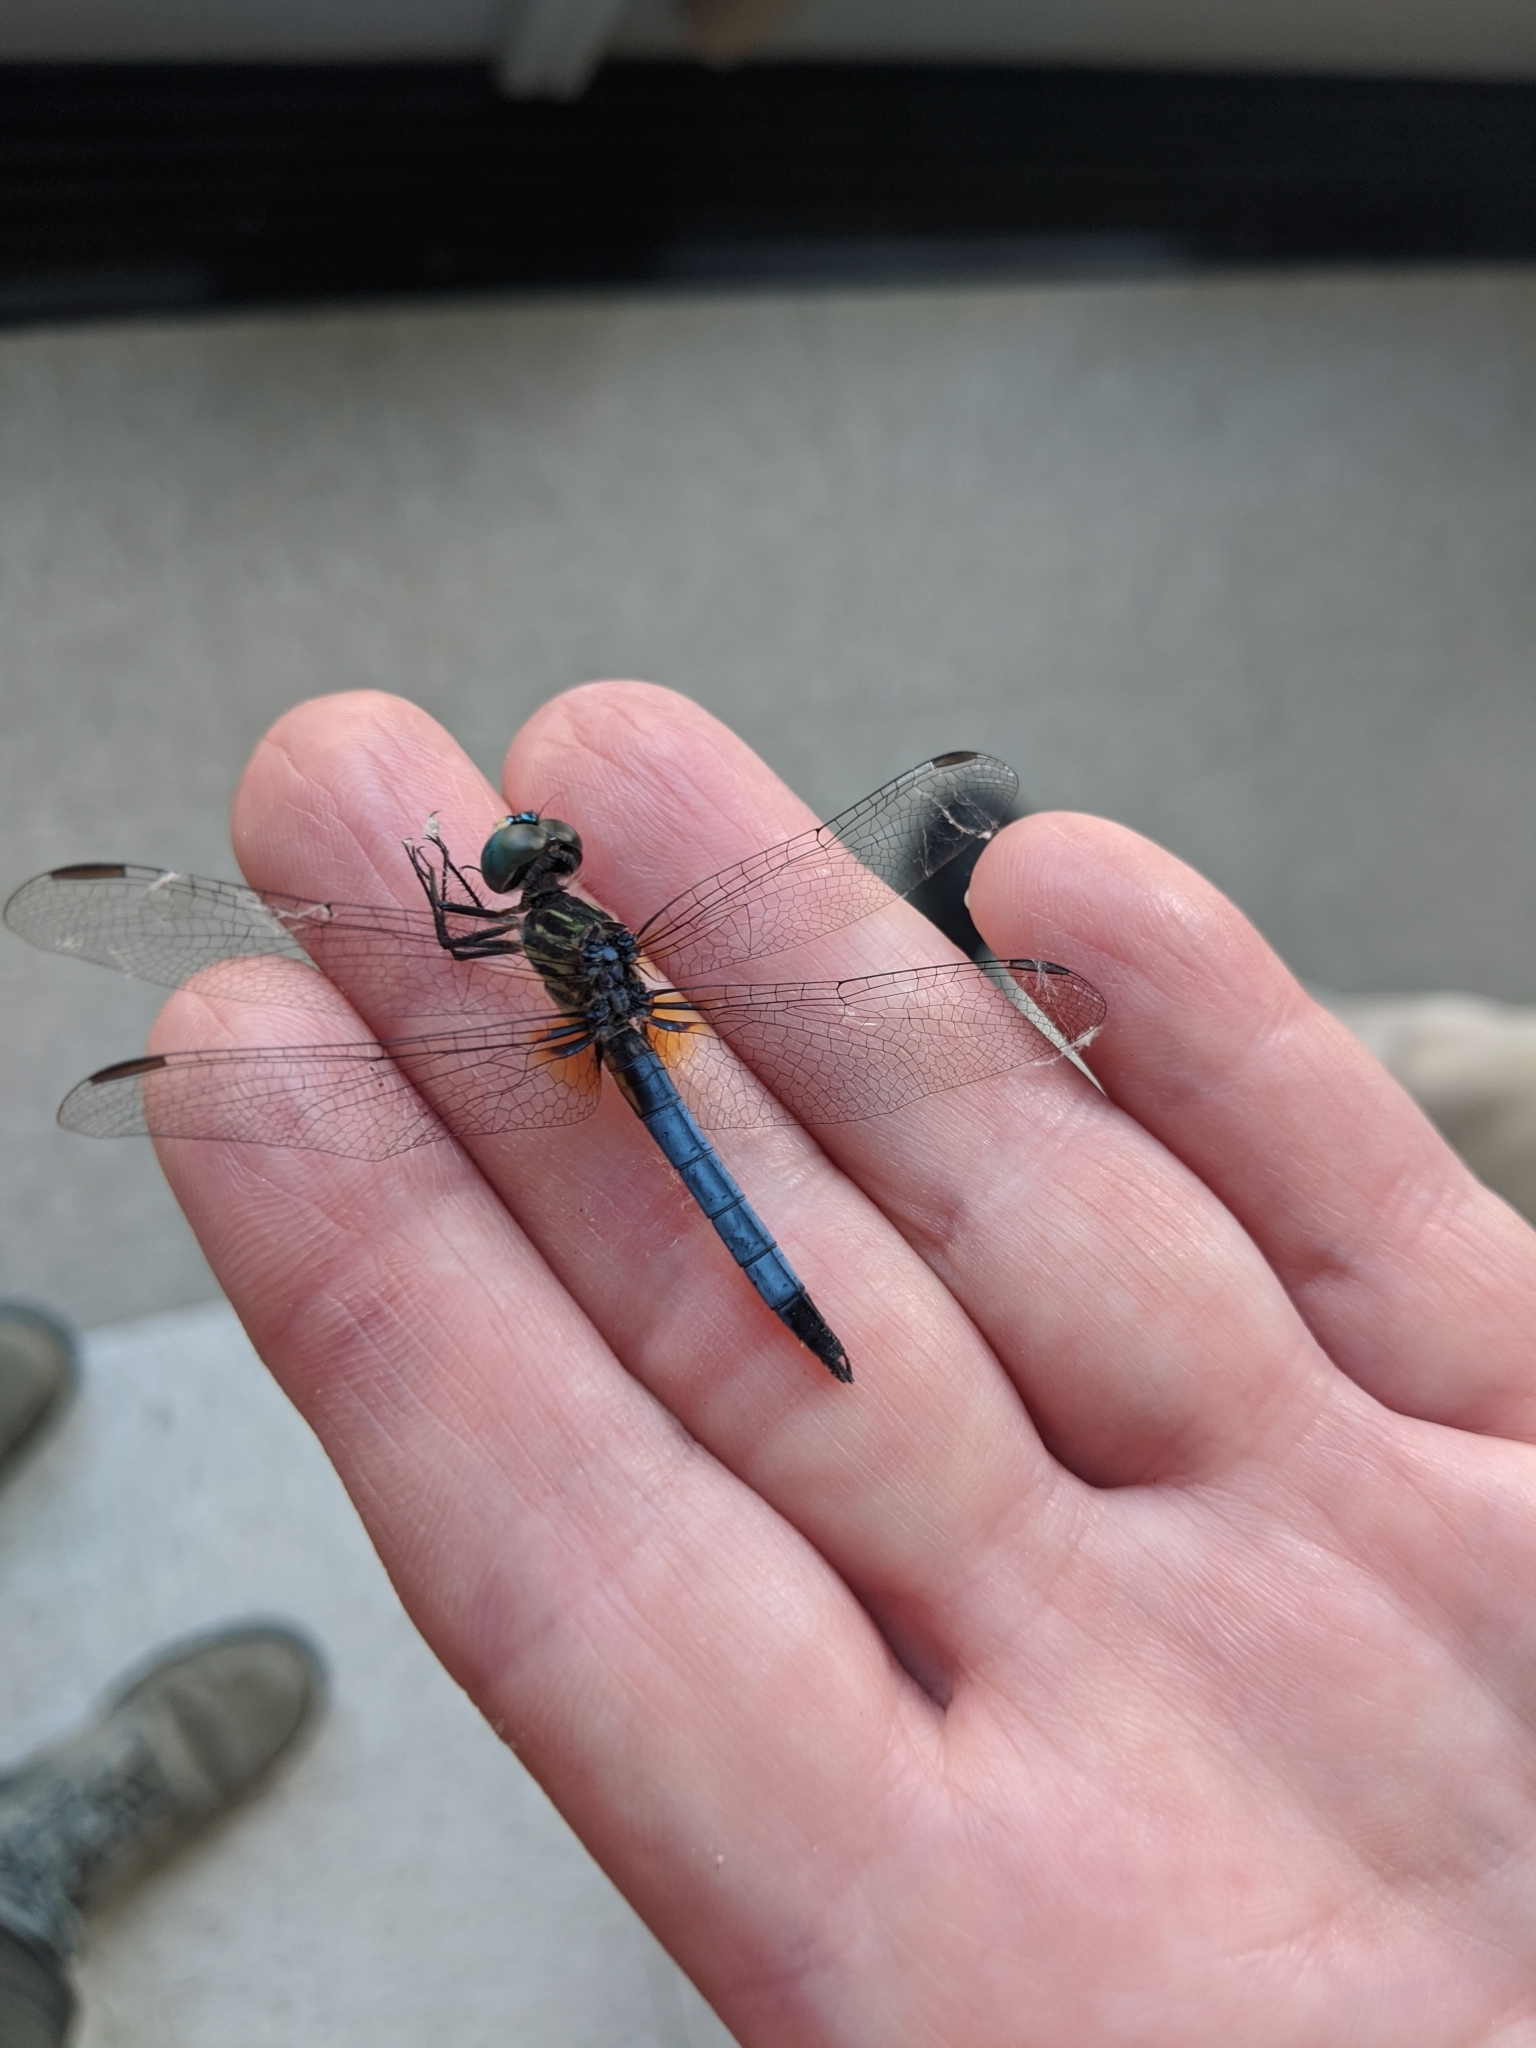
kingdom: Animalia
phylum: Arthropoda
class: Insecta
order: Odonata
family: Libellulidae
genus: Pachydiplax
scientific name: Pachydiplax longipennis
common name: Blue dasher
